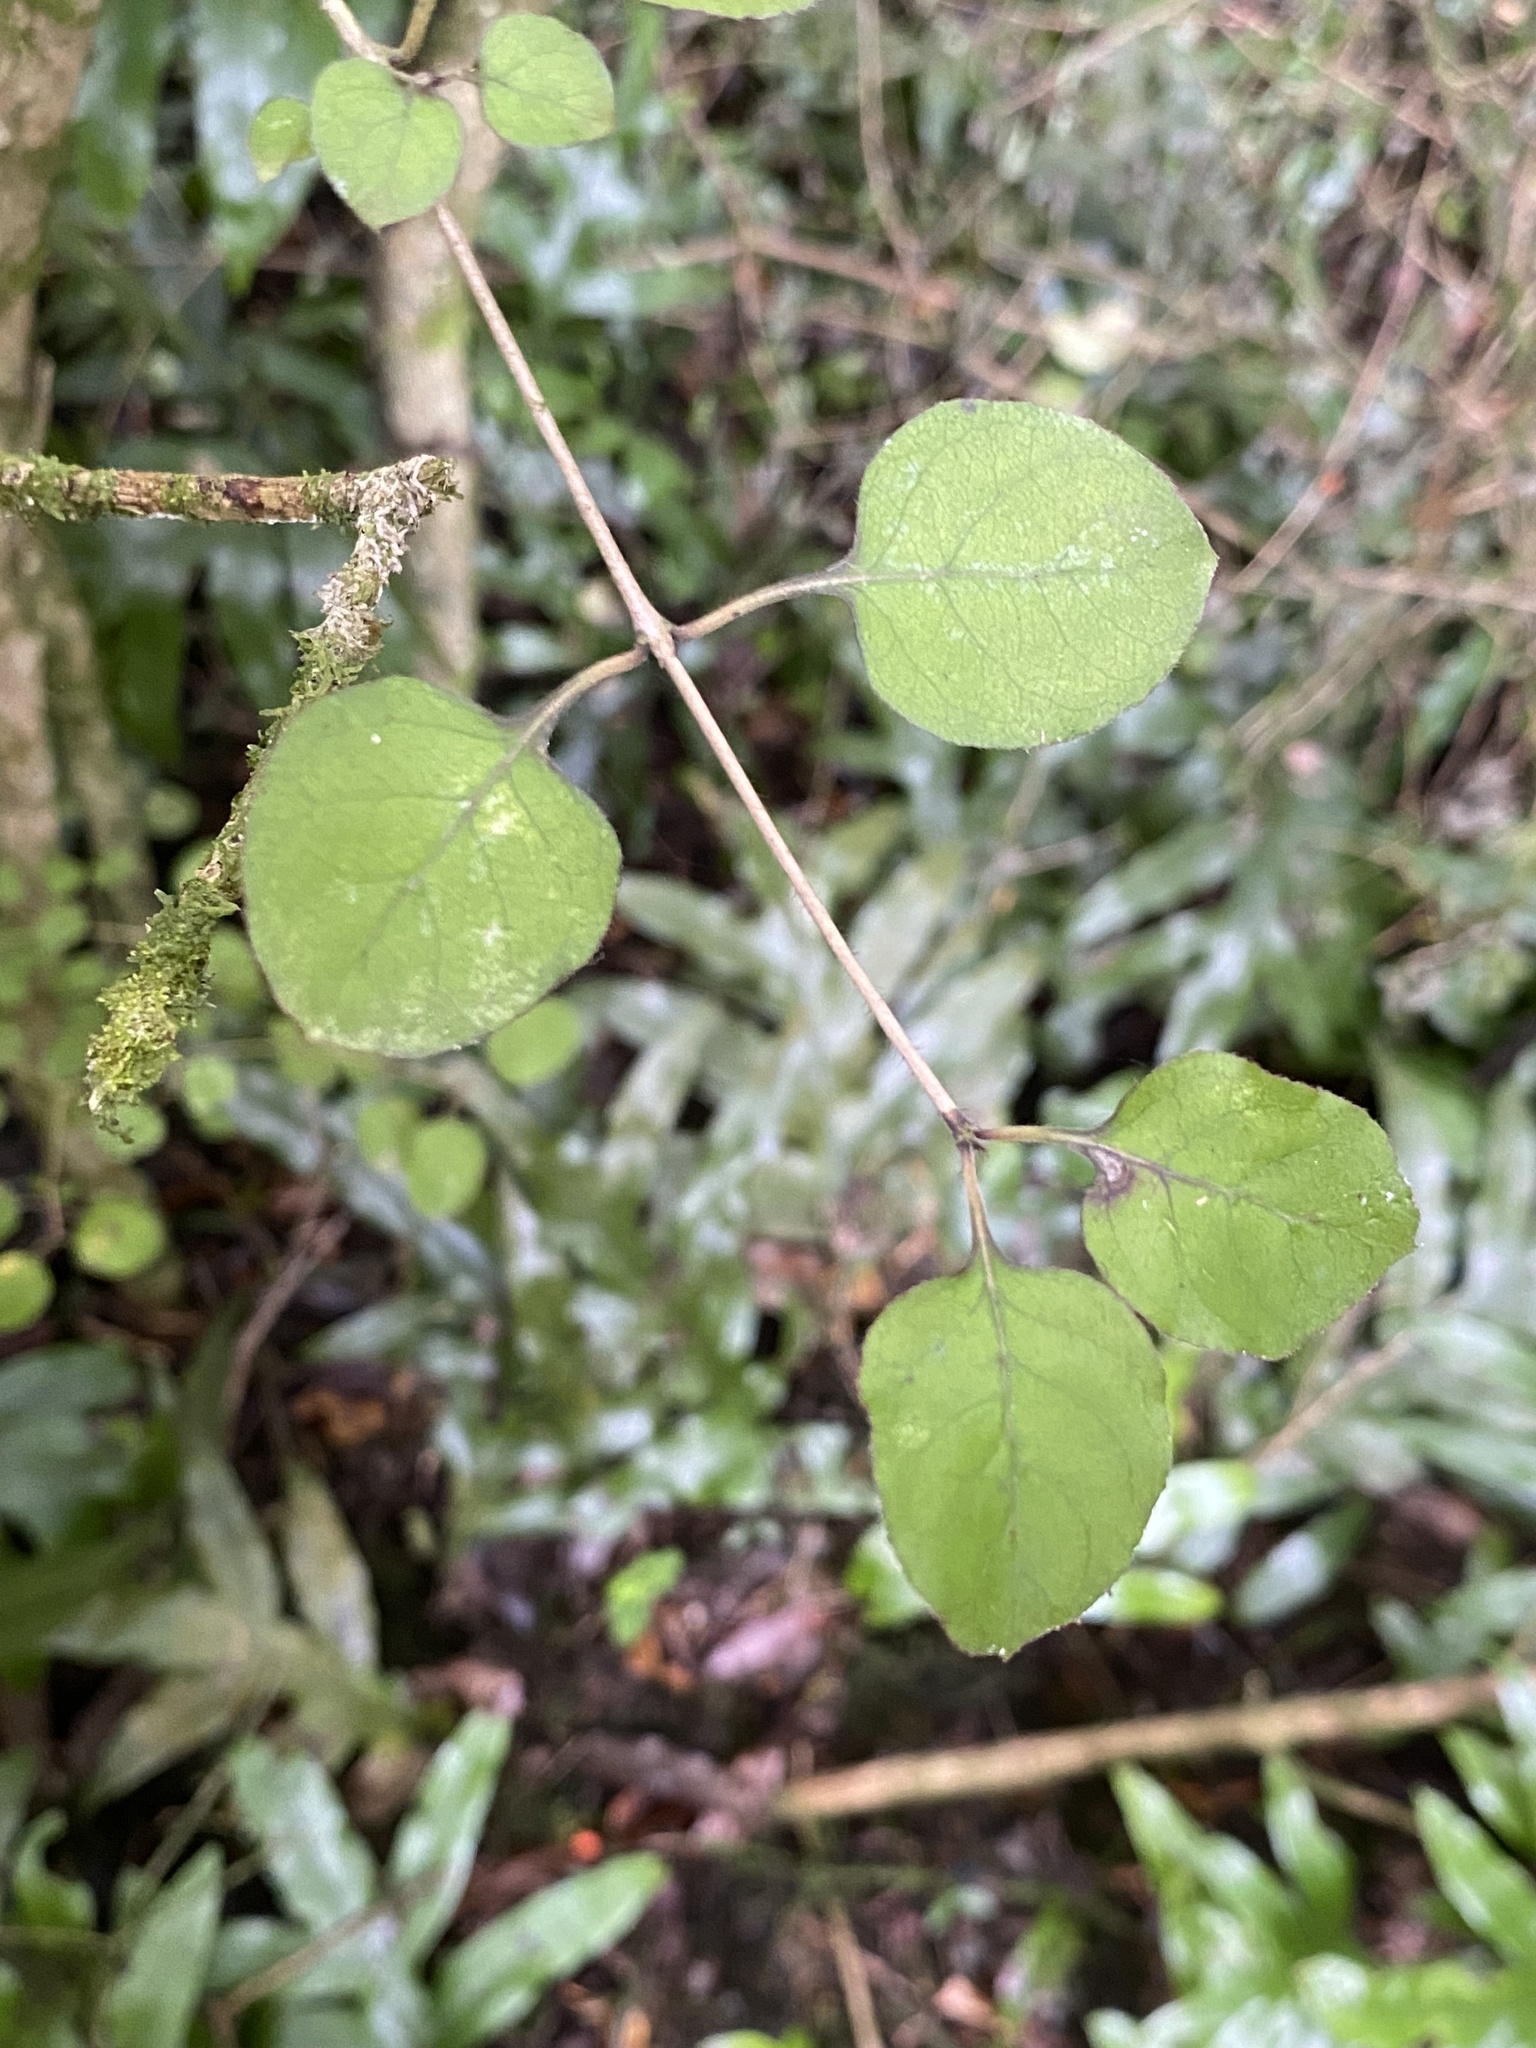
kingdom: Plantae
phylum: Tracheophyta
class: Magnoliopsida
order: Gentianales
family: Rubiaceae
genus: Coprosma
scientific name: Coprosma rotundifolia
